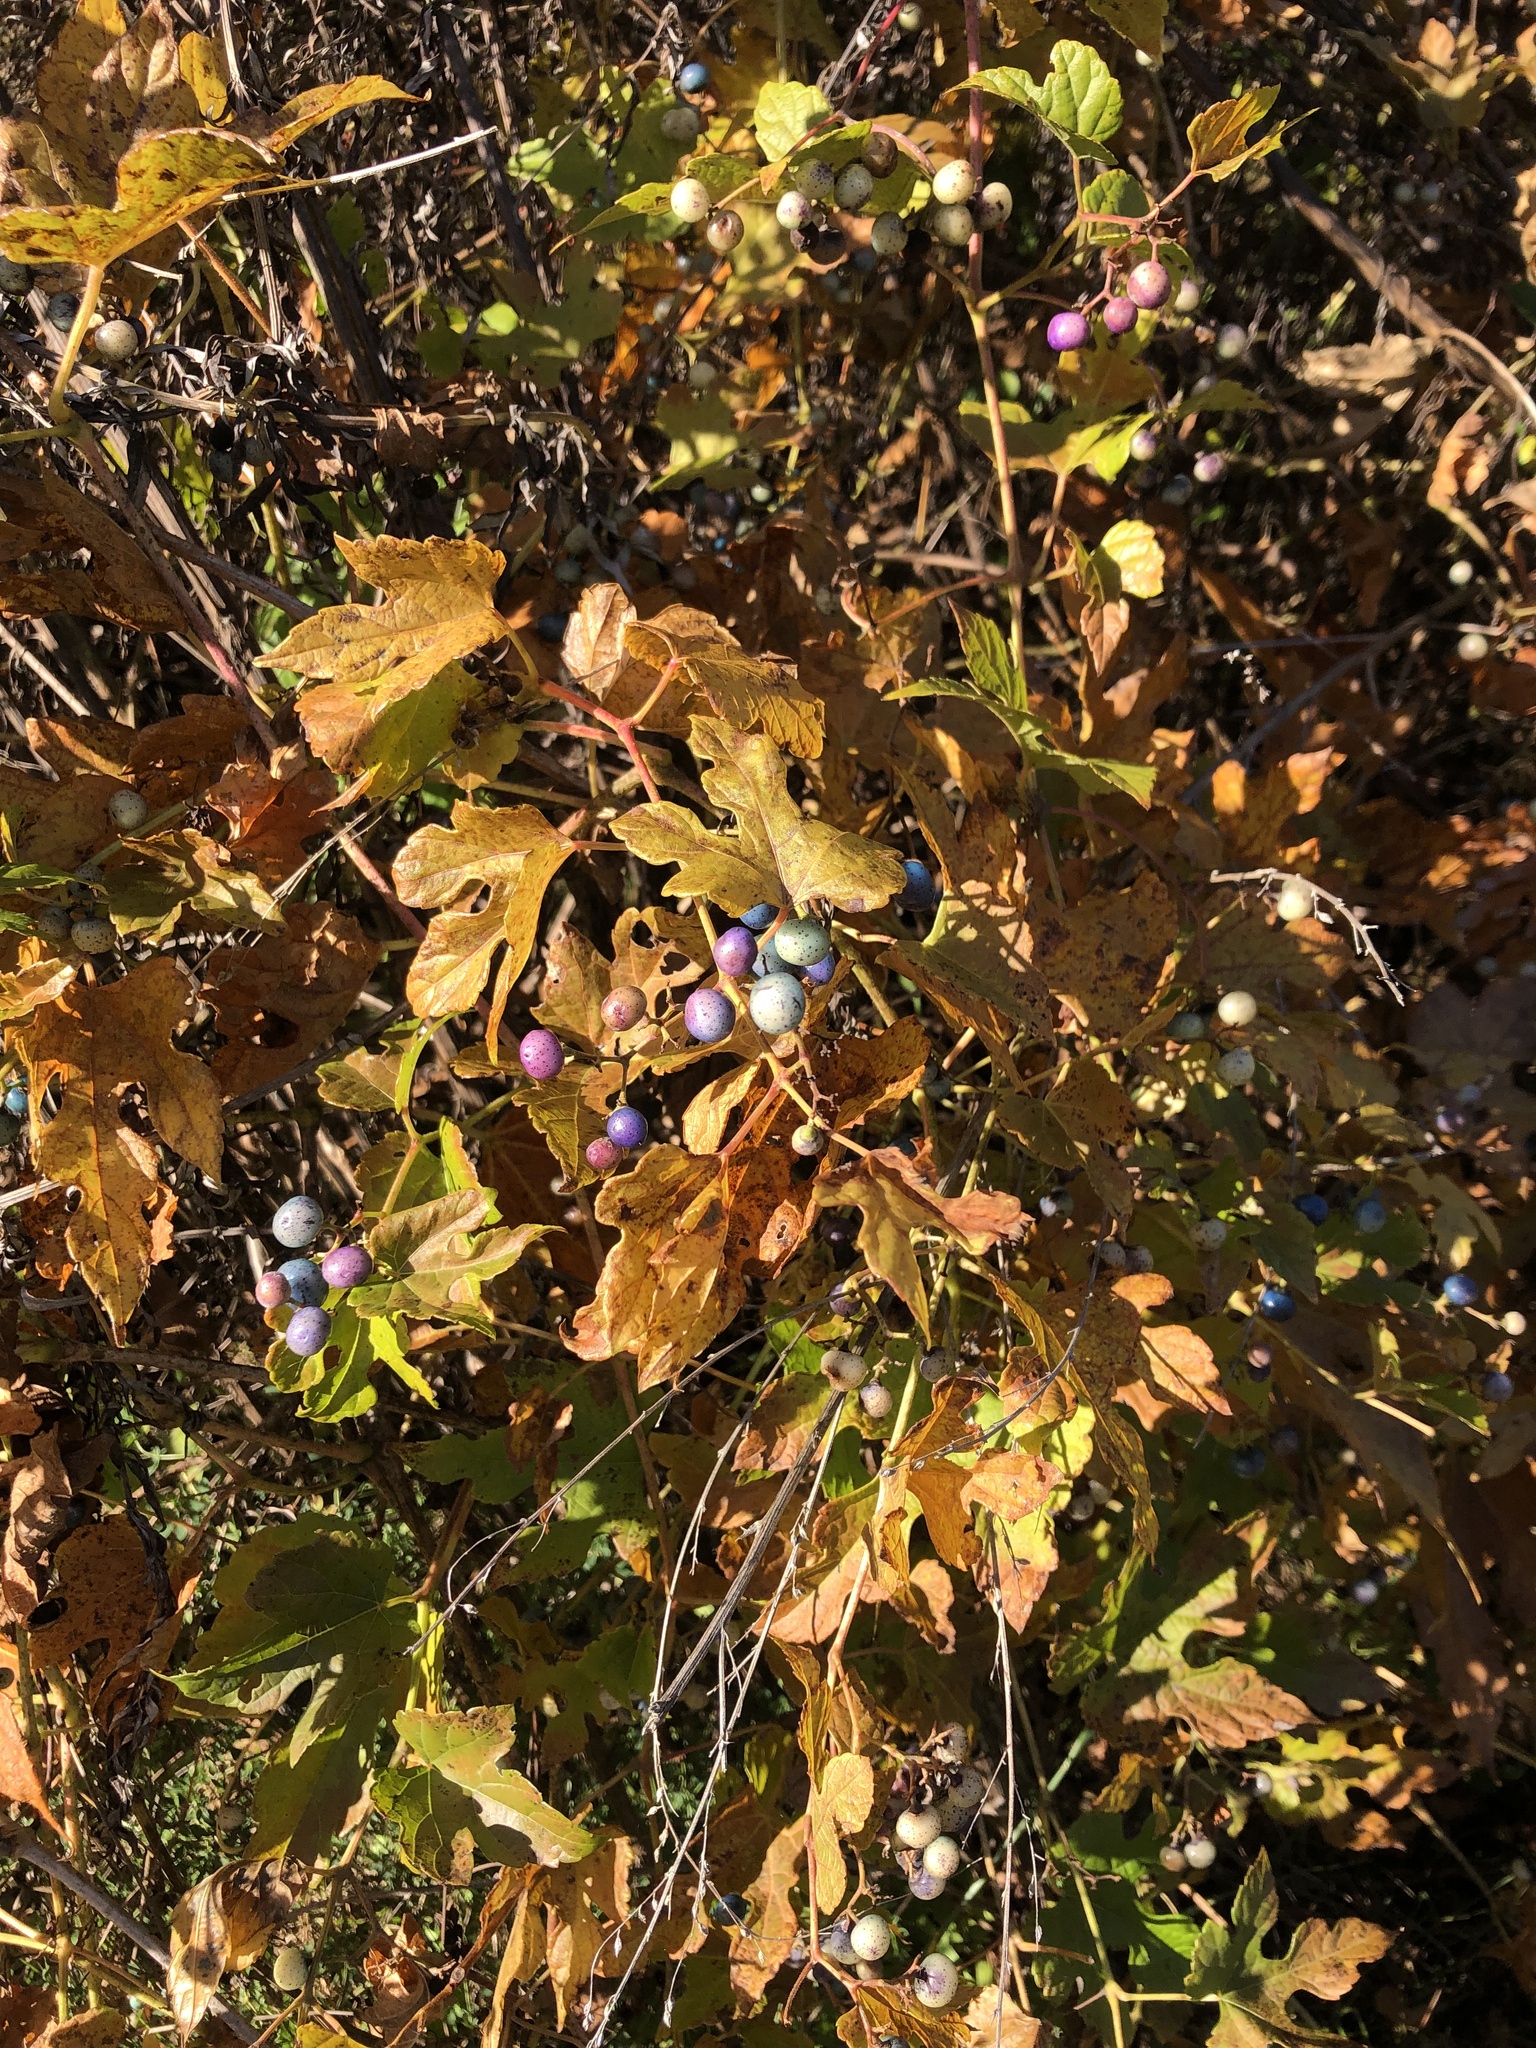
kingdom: Plantae
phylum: Tracheophyta
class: Magnoliopsida
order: Vitales
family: Vitaceae
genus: Ampelopsis
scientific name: Ampelopsis glandulosa
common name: Amur peppervine
